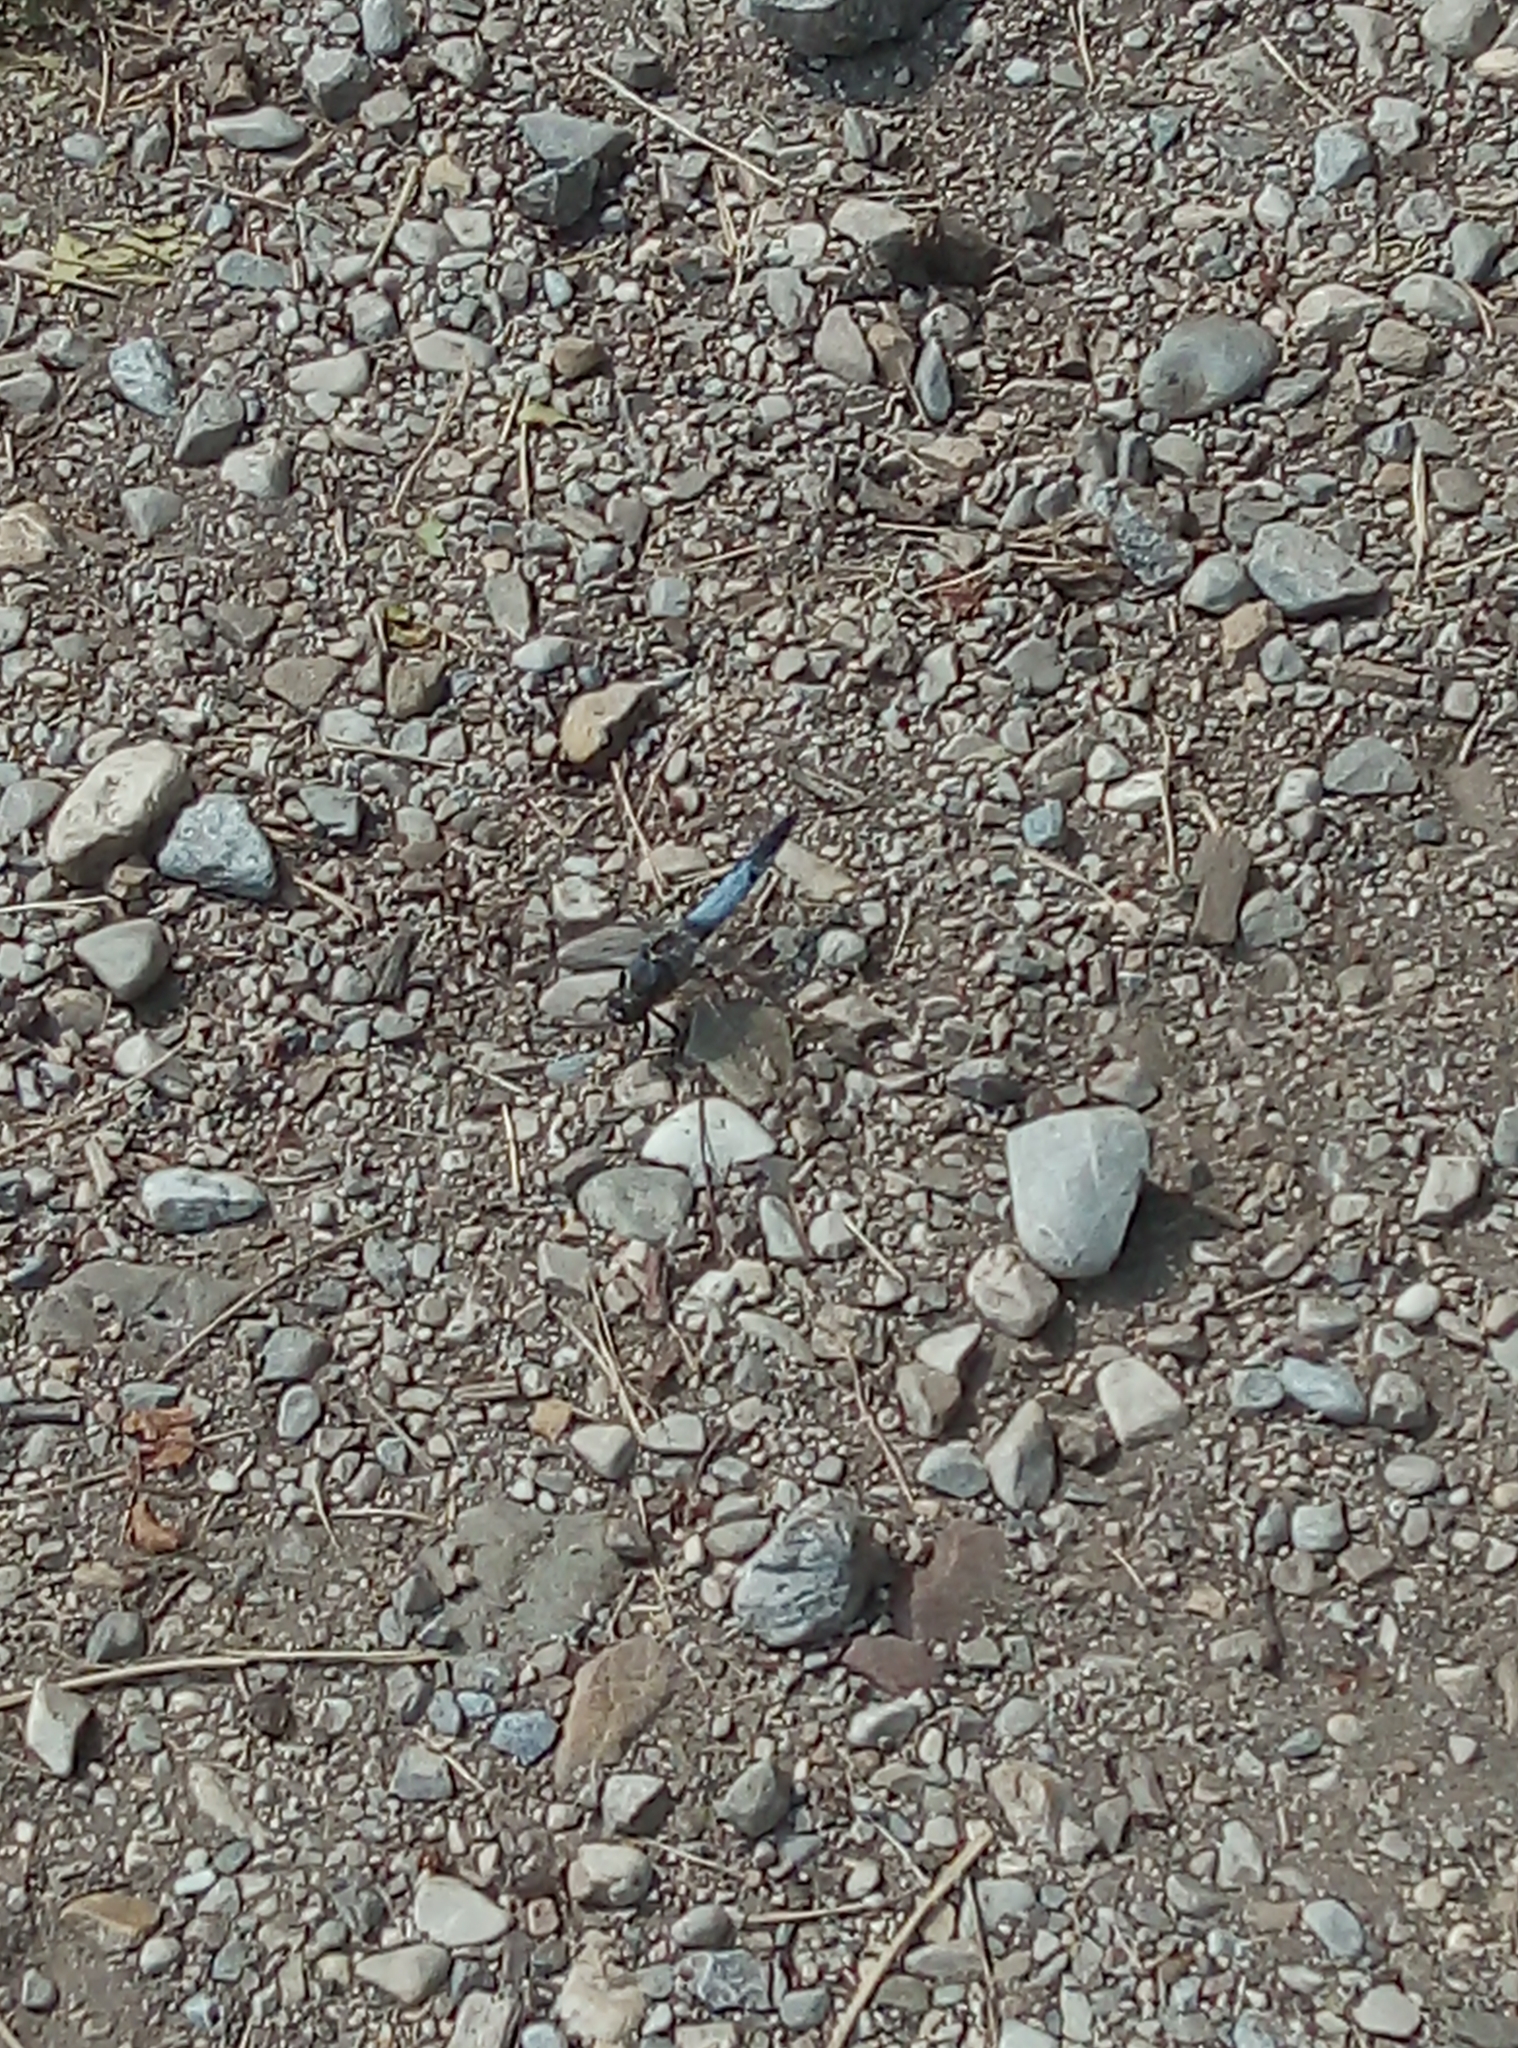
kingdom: Animalia
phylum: Arthropoda
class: Insecta
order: Odonata
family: Libellulidae
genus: Orthetrum
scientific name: Orthetrum cancellatum
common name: Black-tailed skimmer
